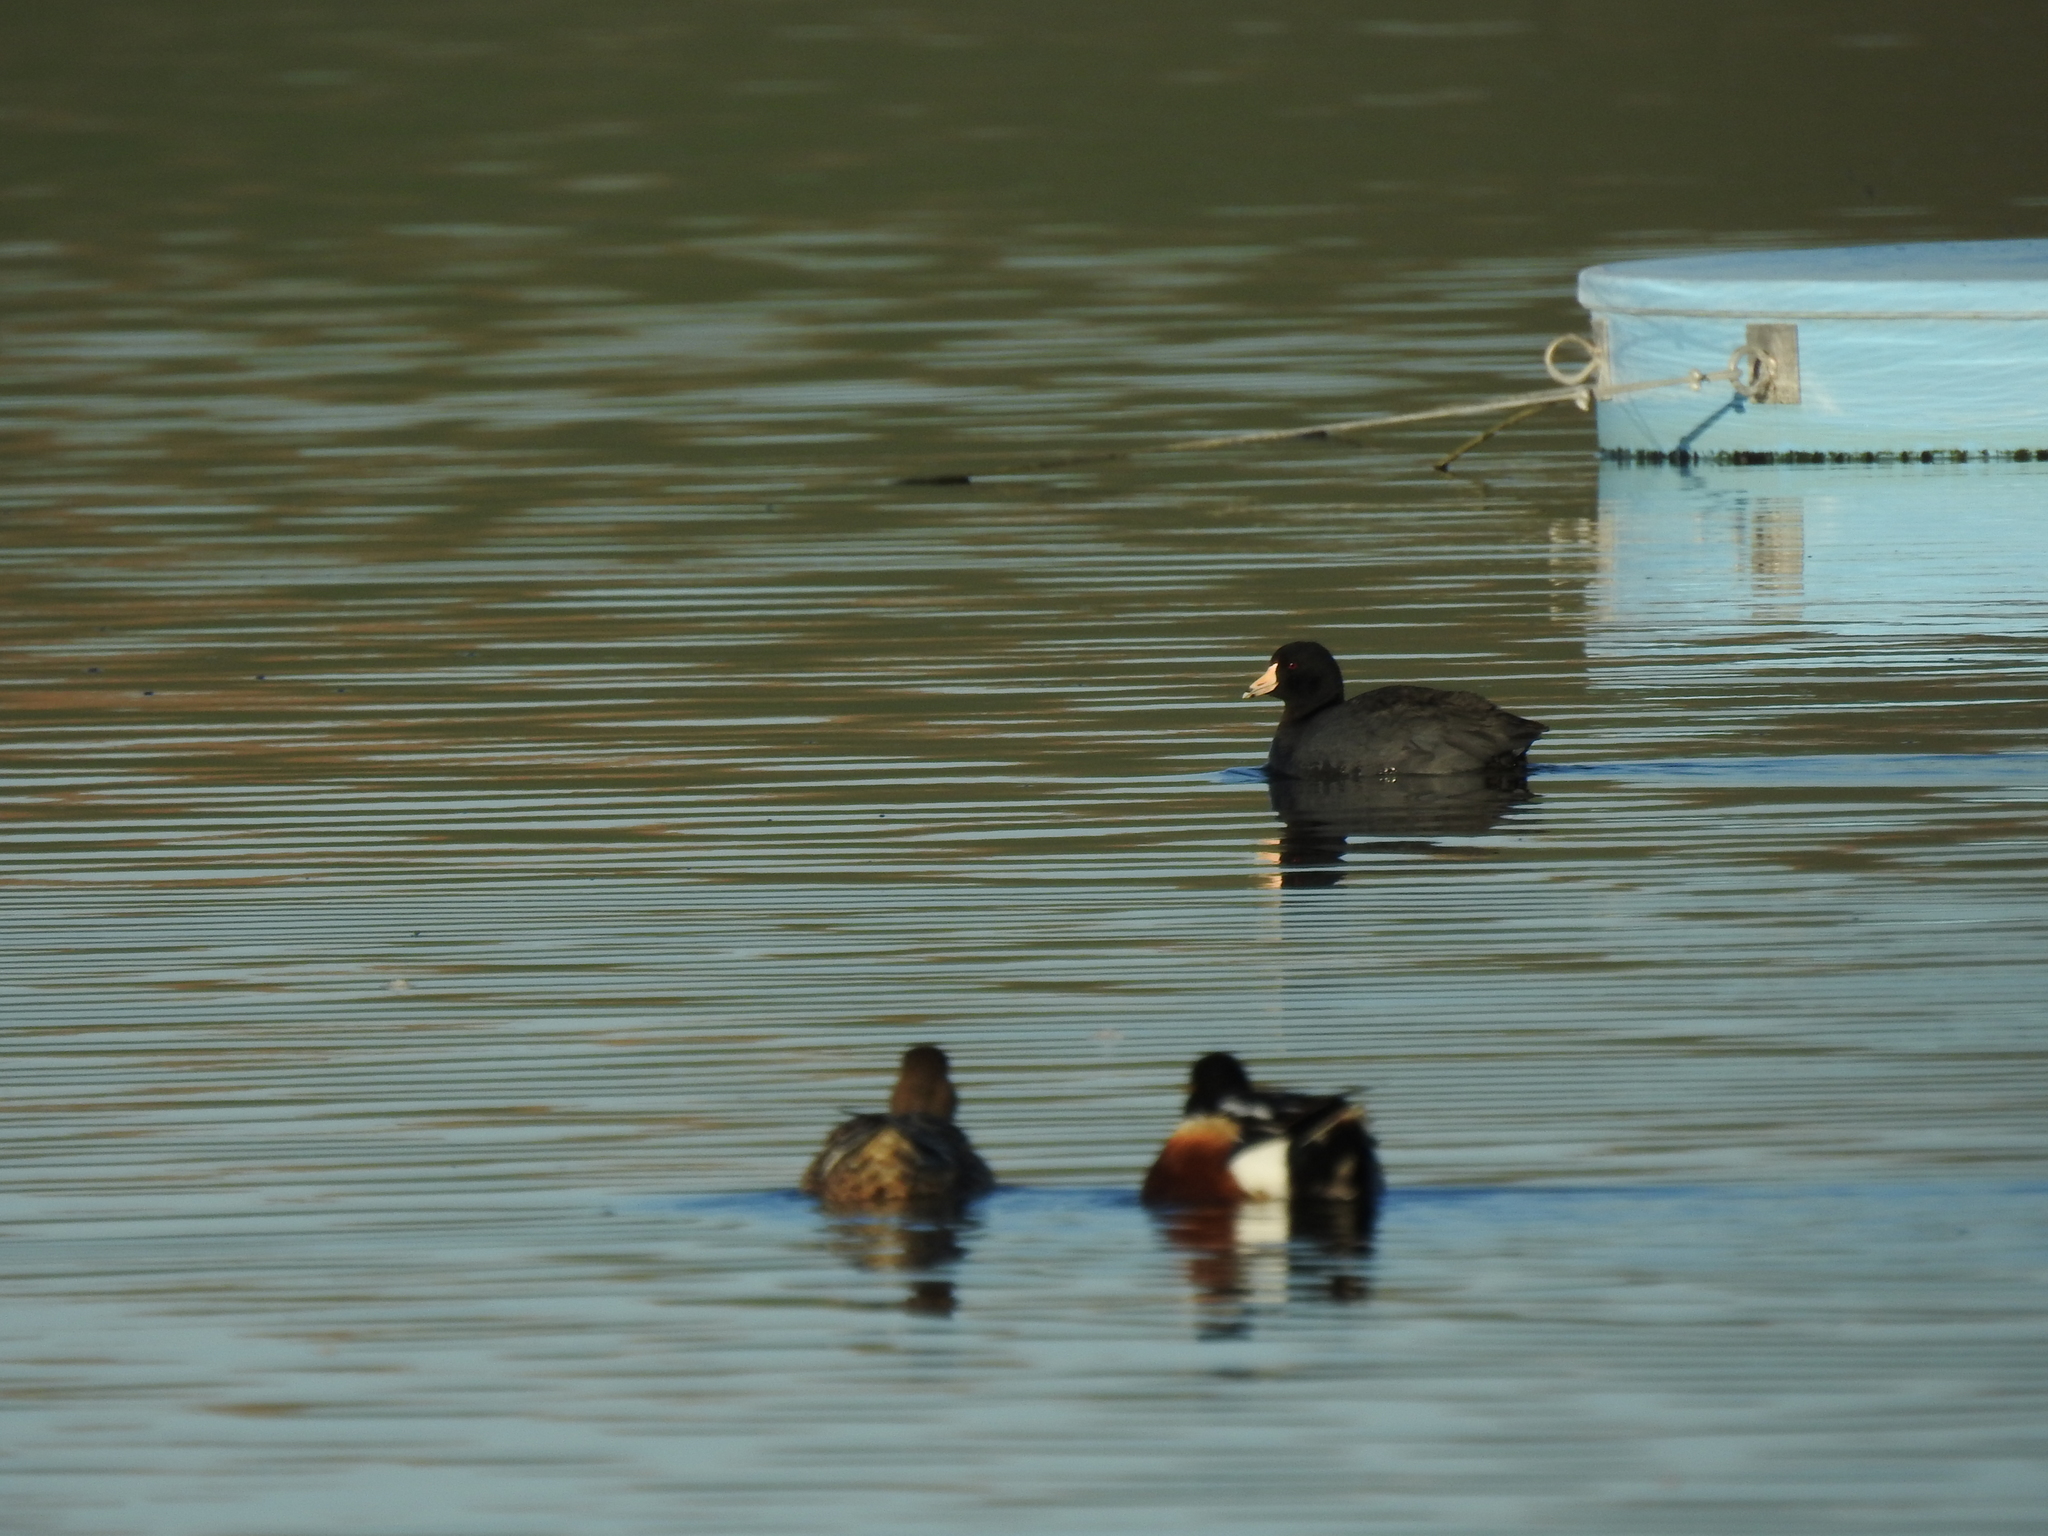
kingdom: Animalia
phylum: Chordata
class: Aves
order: Gruiformes
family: Rallidae
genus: Fulica
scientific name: Fulica americana
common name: American coot
